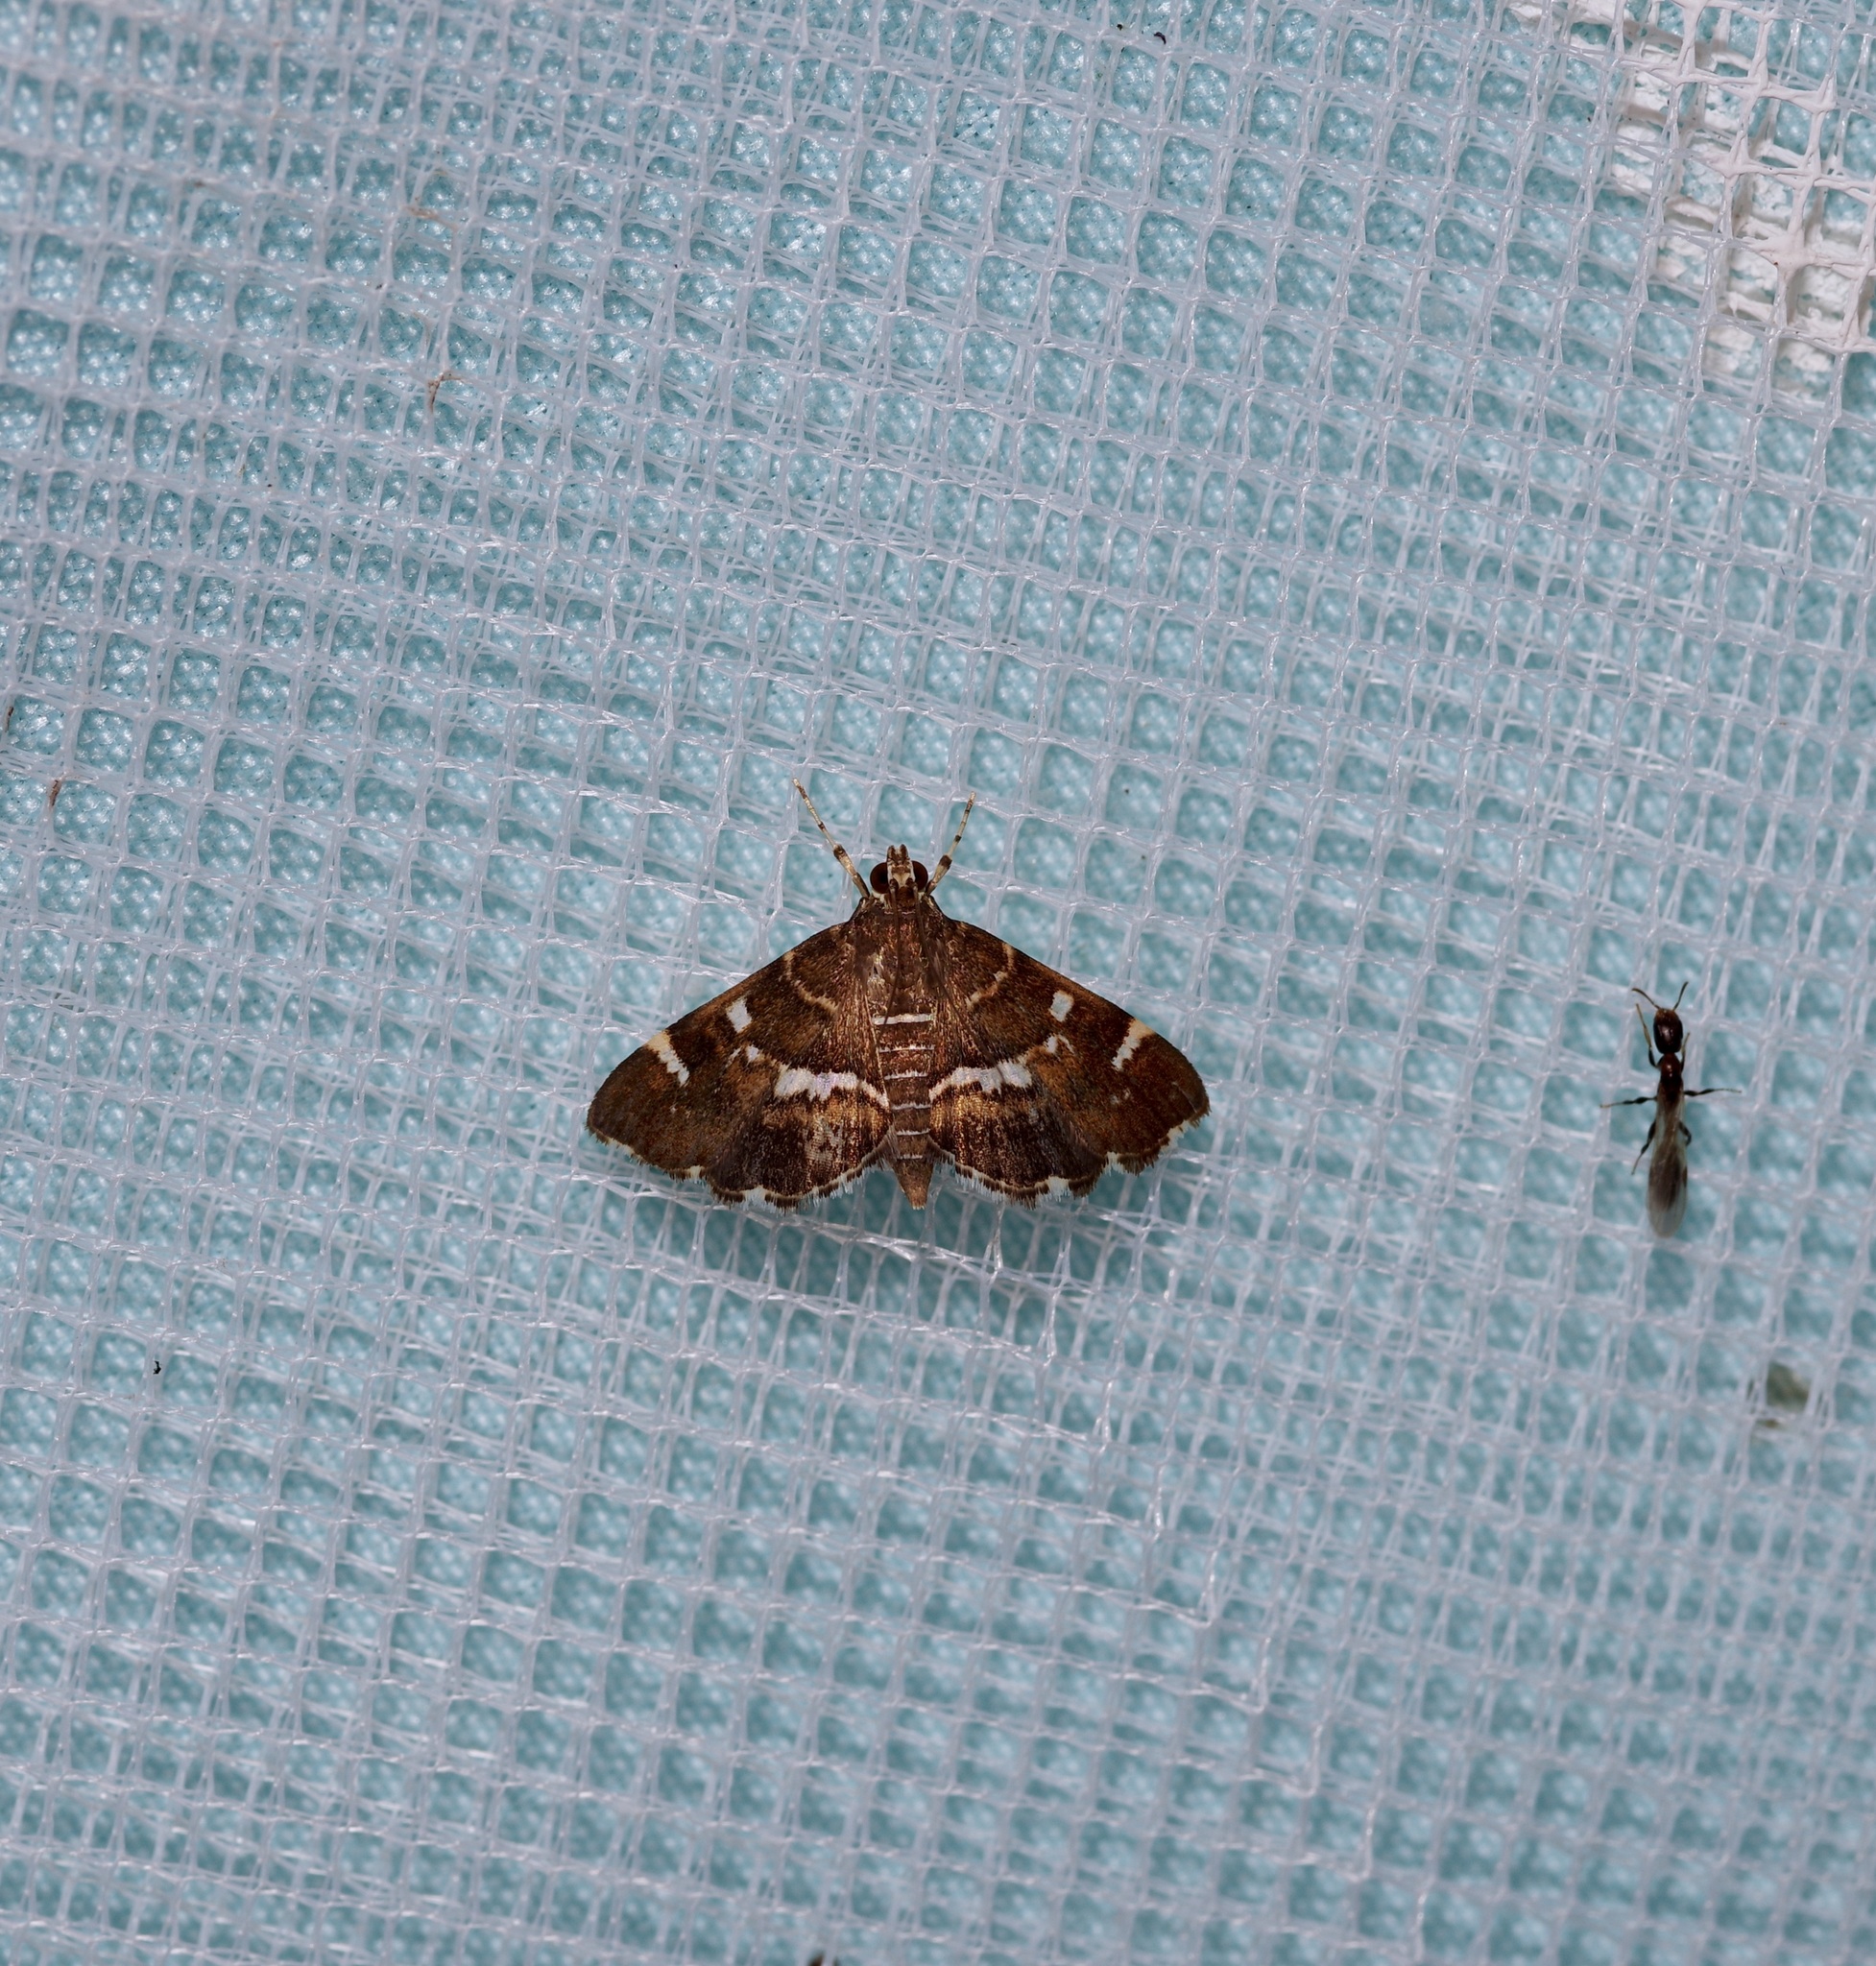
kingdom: Animalia
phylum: Arthropoda
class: Insecta
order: Lepidoptera
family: Crambidae
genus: Hymenia
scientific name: Hymenia perspectalis
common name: Spotted beet webworm
